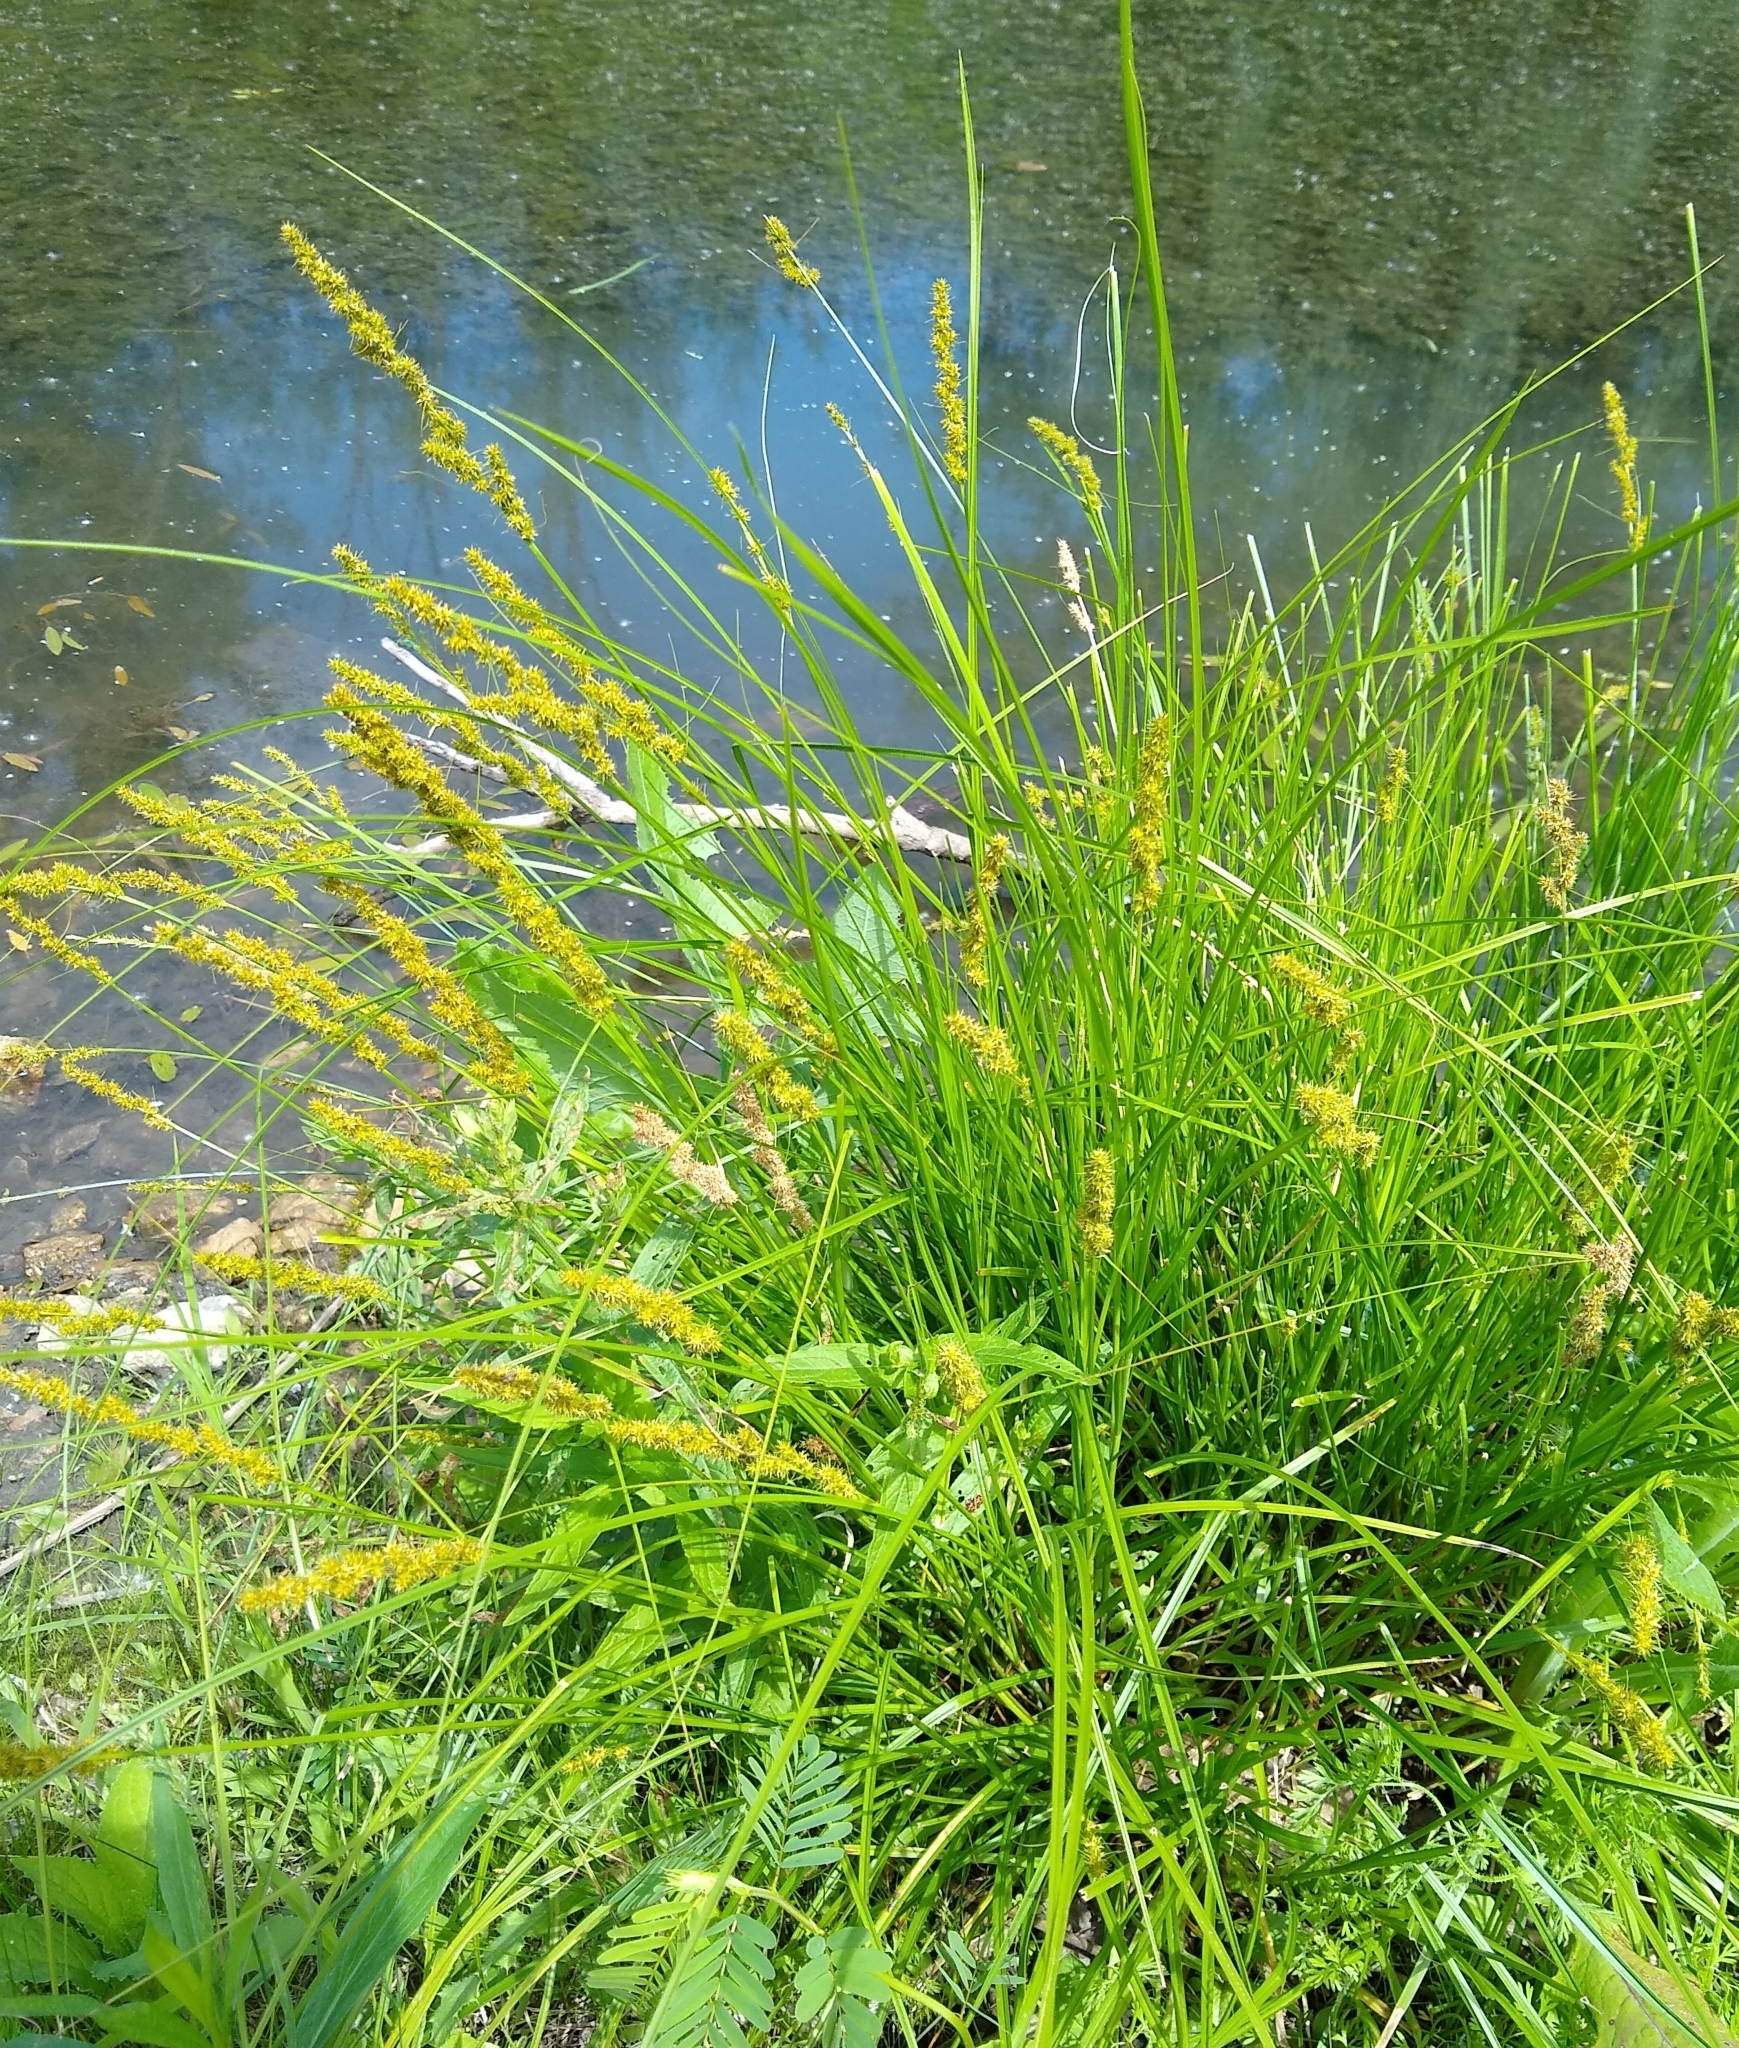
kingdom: Plantae
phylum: Tracheophyta
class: Liliopsida
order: Poales
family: Cyperaceae
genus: Carex
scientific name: Carex vulpinoidea
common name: American fox-sedge
